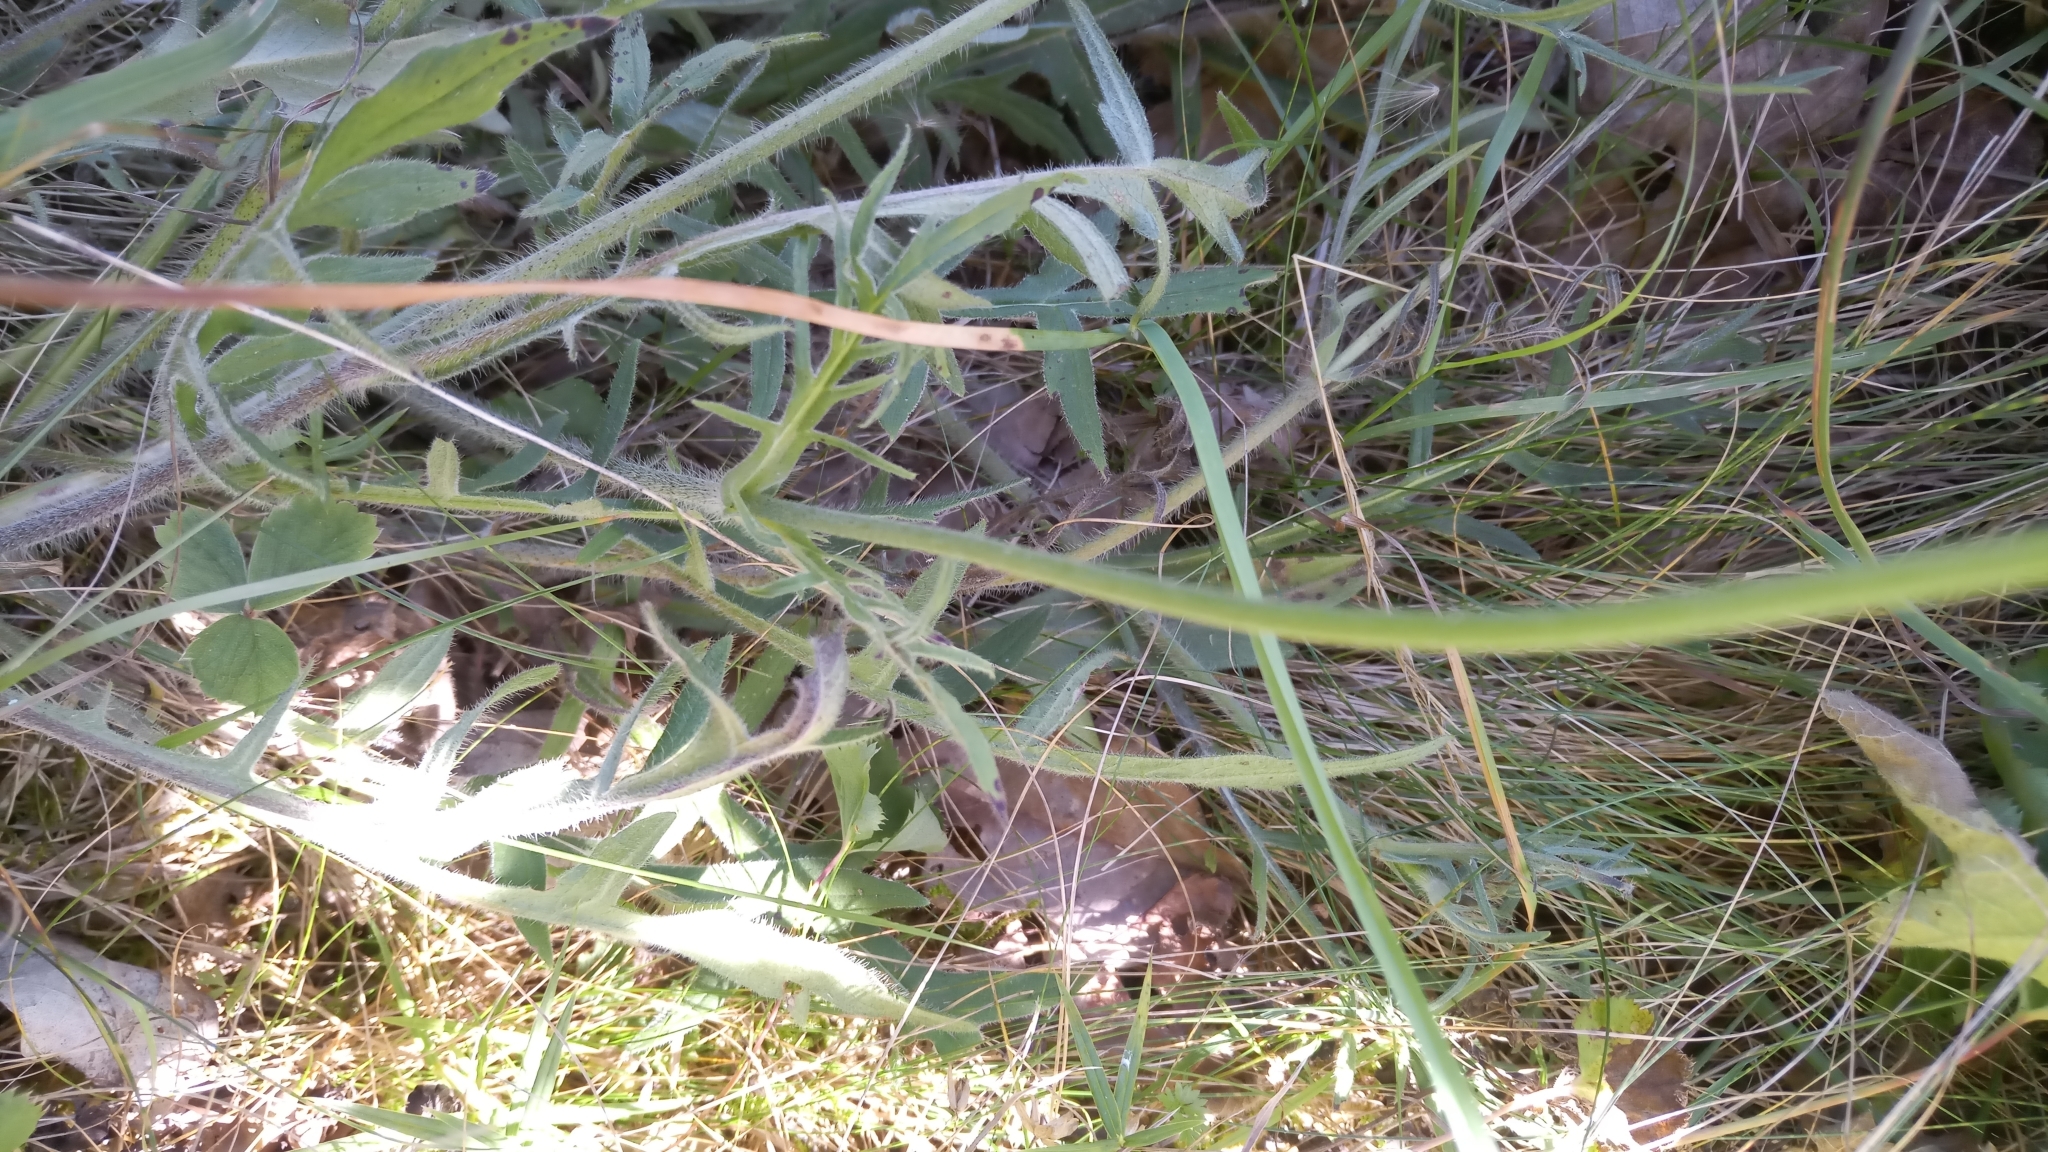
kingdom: Plantae
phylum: Tracheophyta
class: Magnoliopsida
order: Dipsacales
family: Caprifoliaceae
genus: Knautia
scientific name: Knautia arvensis
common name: Field scabiosa
